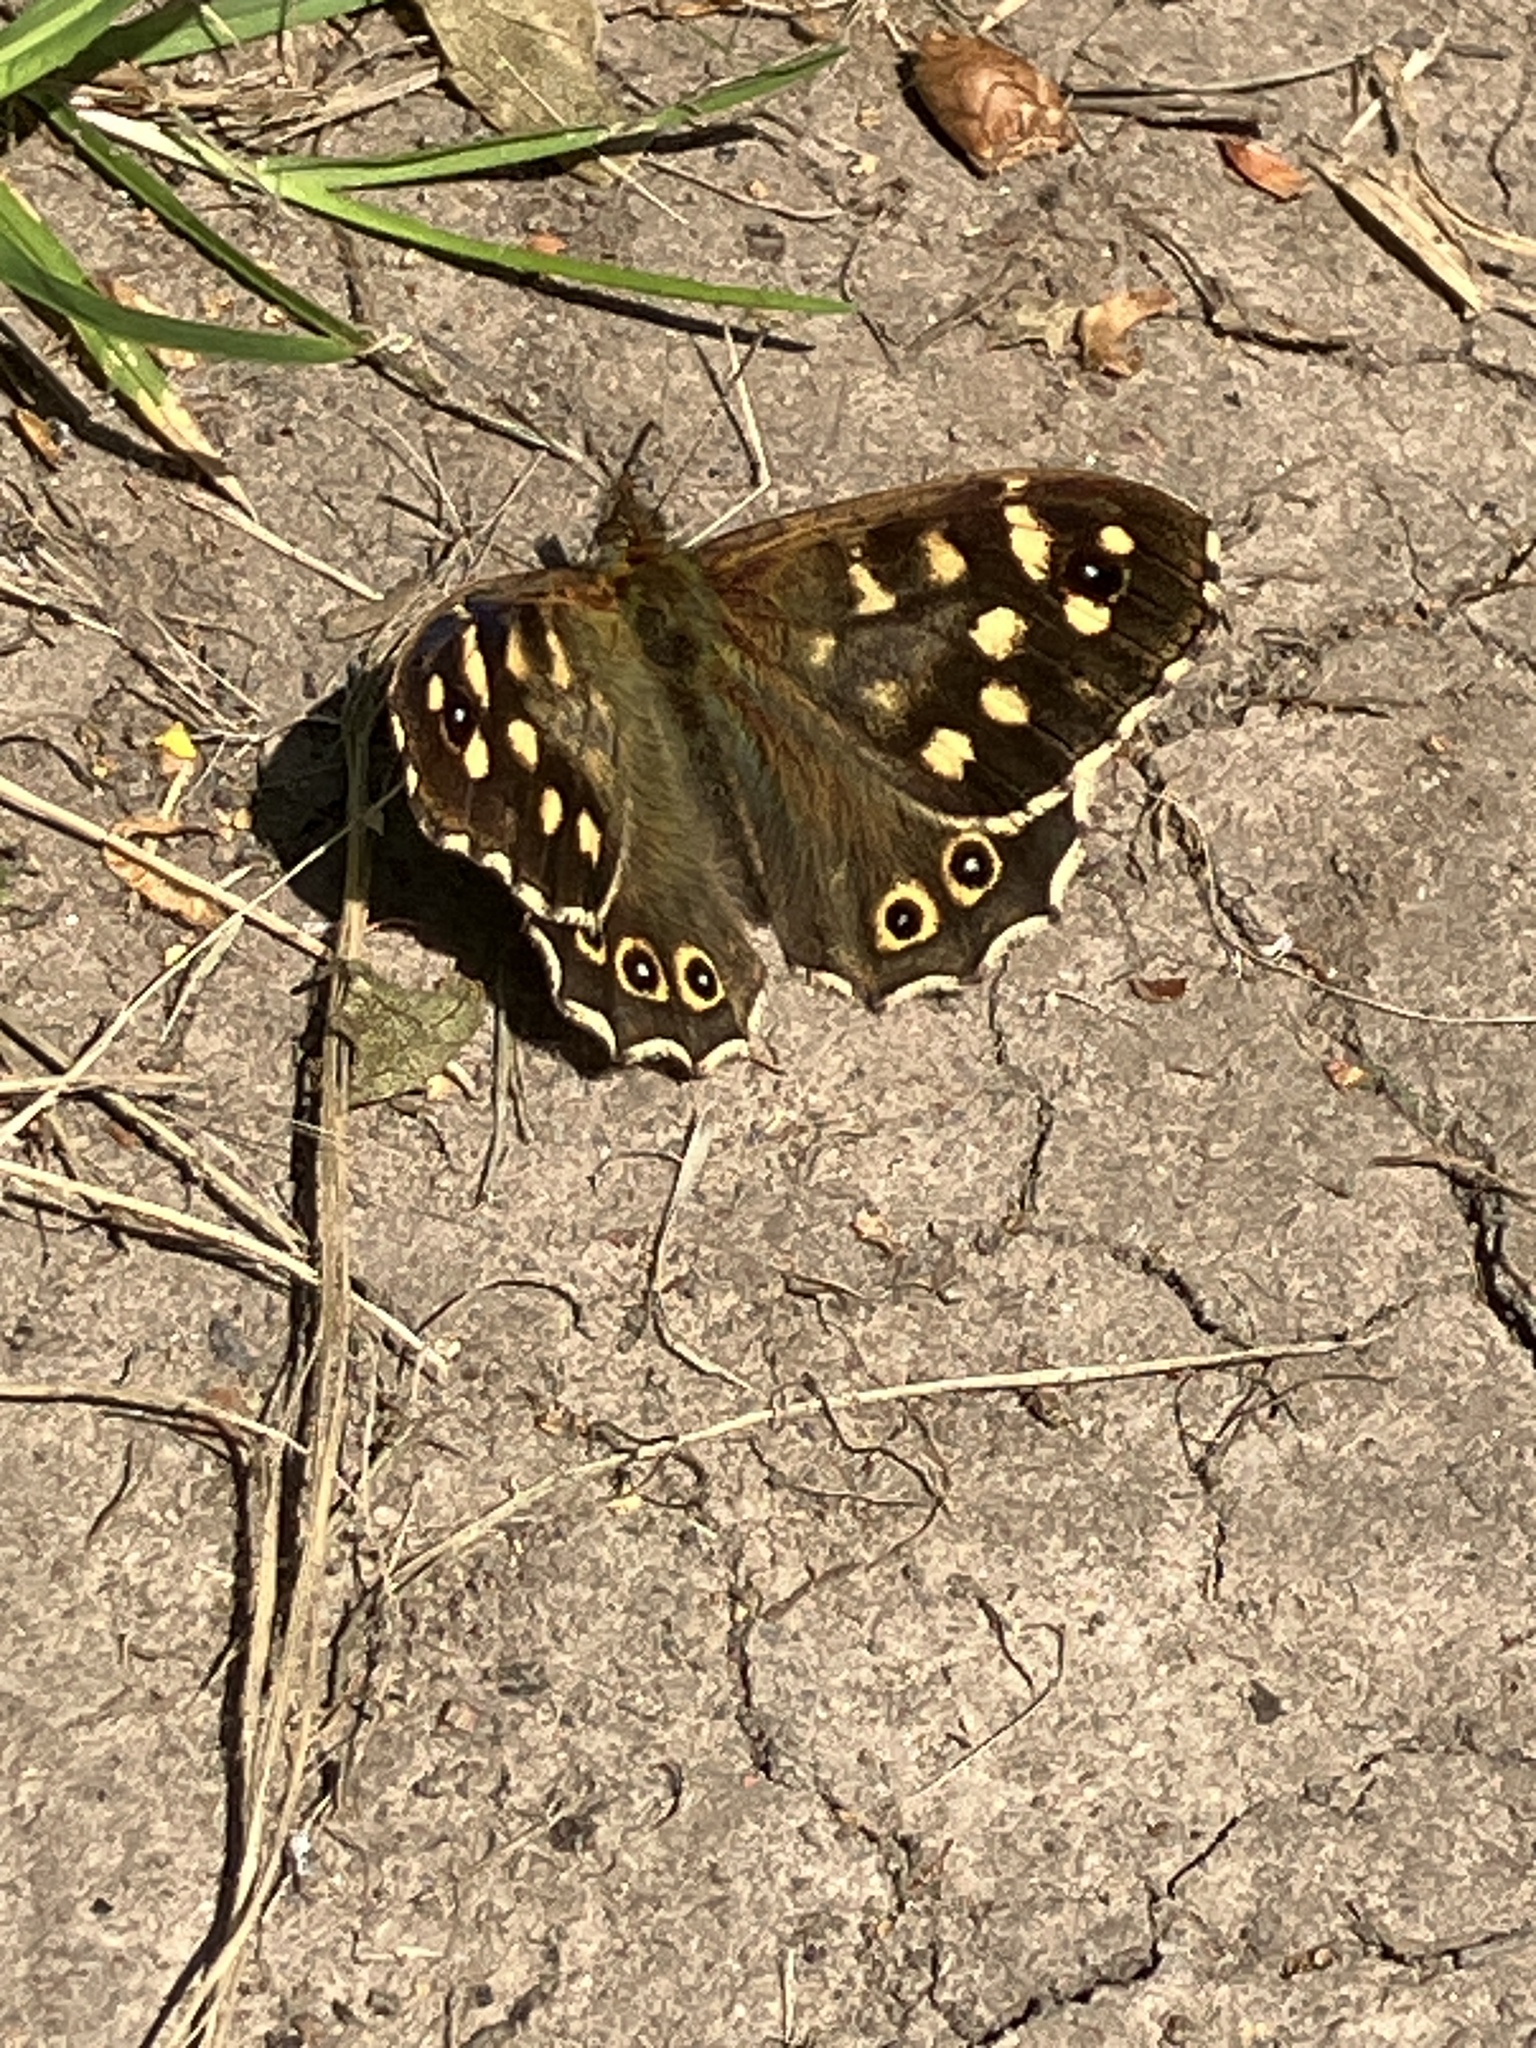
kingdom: Animalia
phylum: Arthropoda
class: Insecta
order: Lepidoptera
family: Nymphalidae
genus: Pararge
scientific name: Pararge aegeria
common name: Speckled wood
